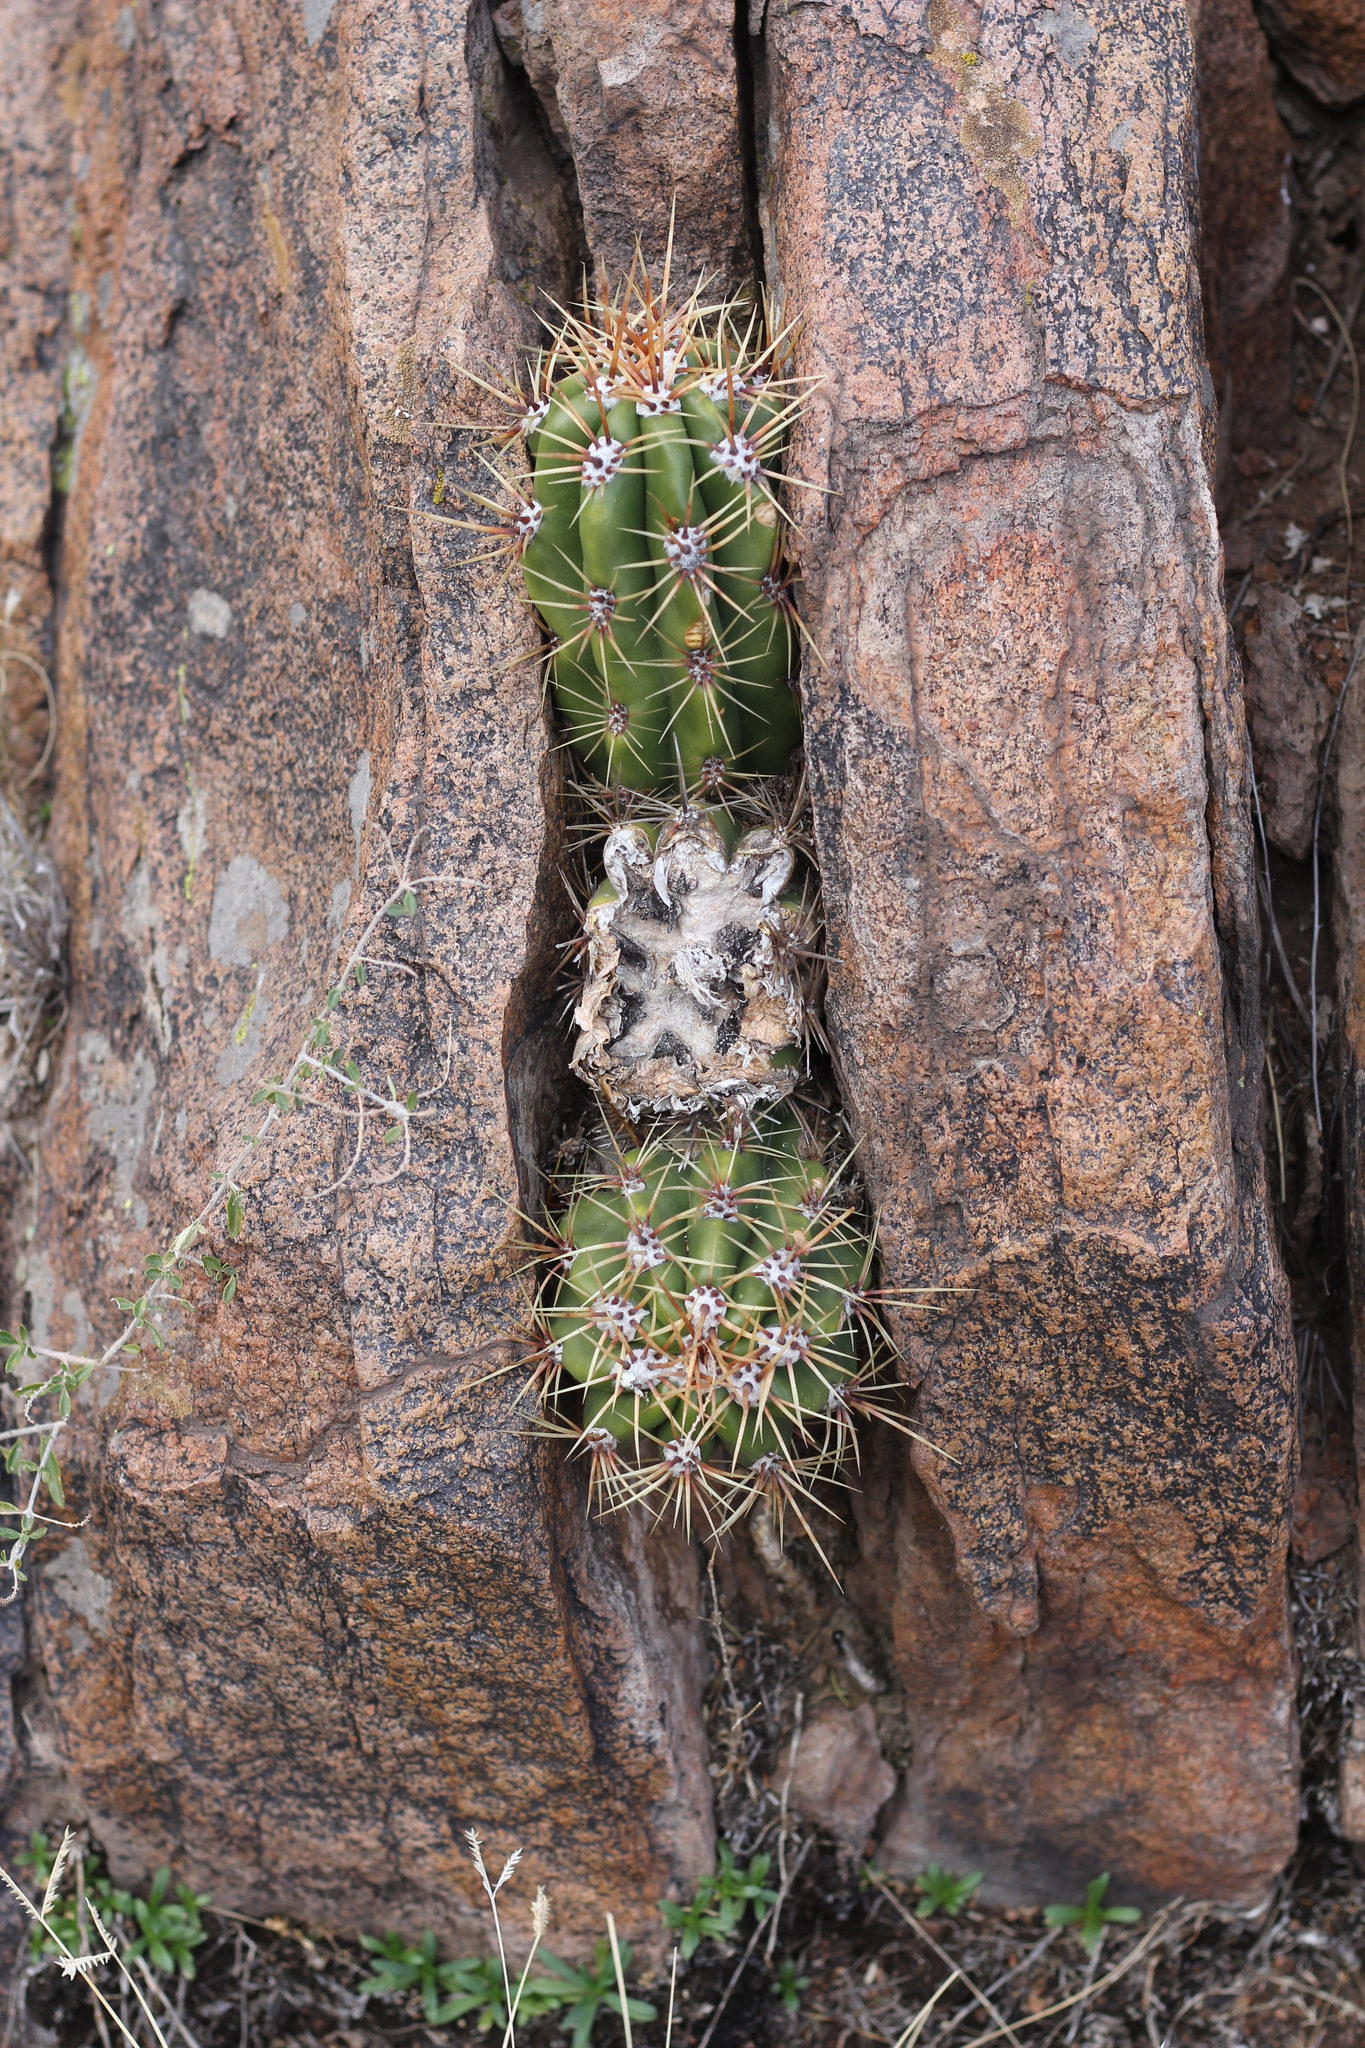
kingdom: Plantae
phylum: Tracheophyta
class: Magnoliopsida
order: Caryophyllales
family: Cactaceae
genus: Soehrensia
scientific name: Soehrensia candicans
